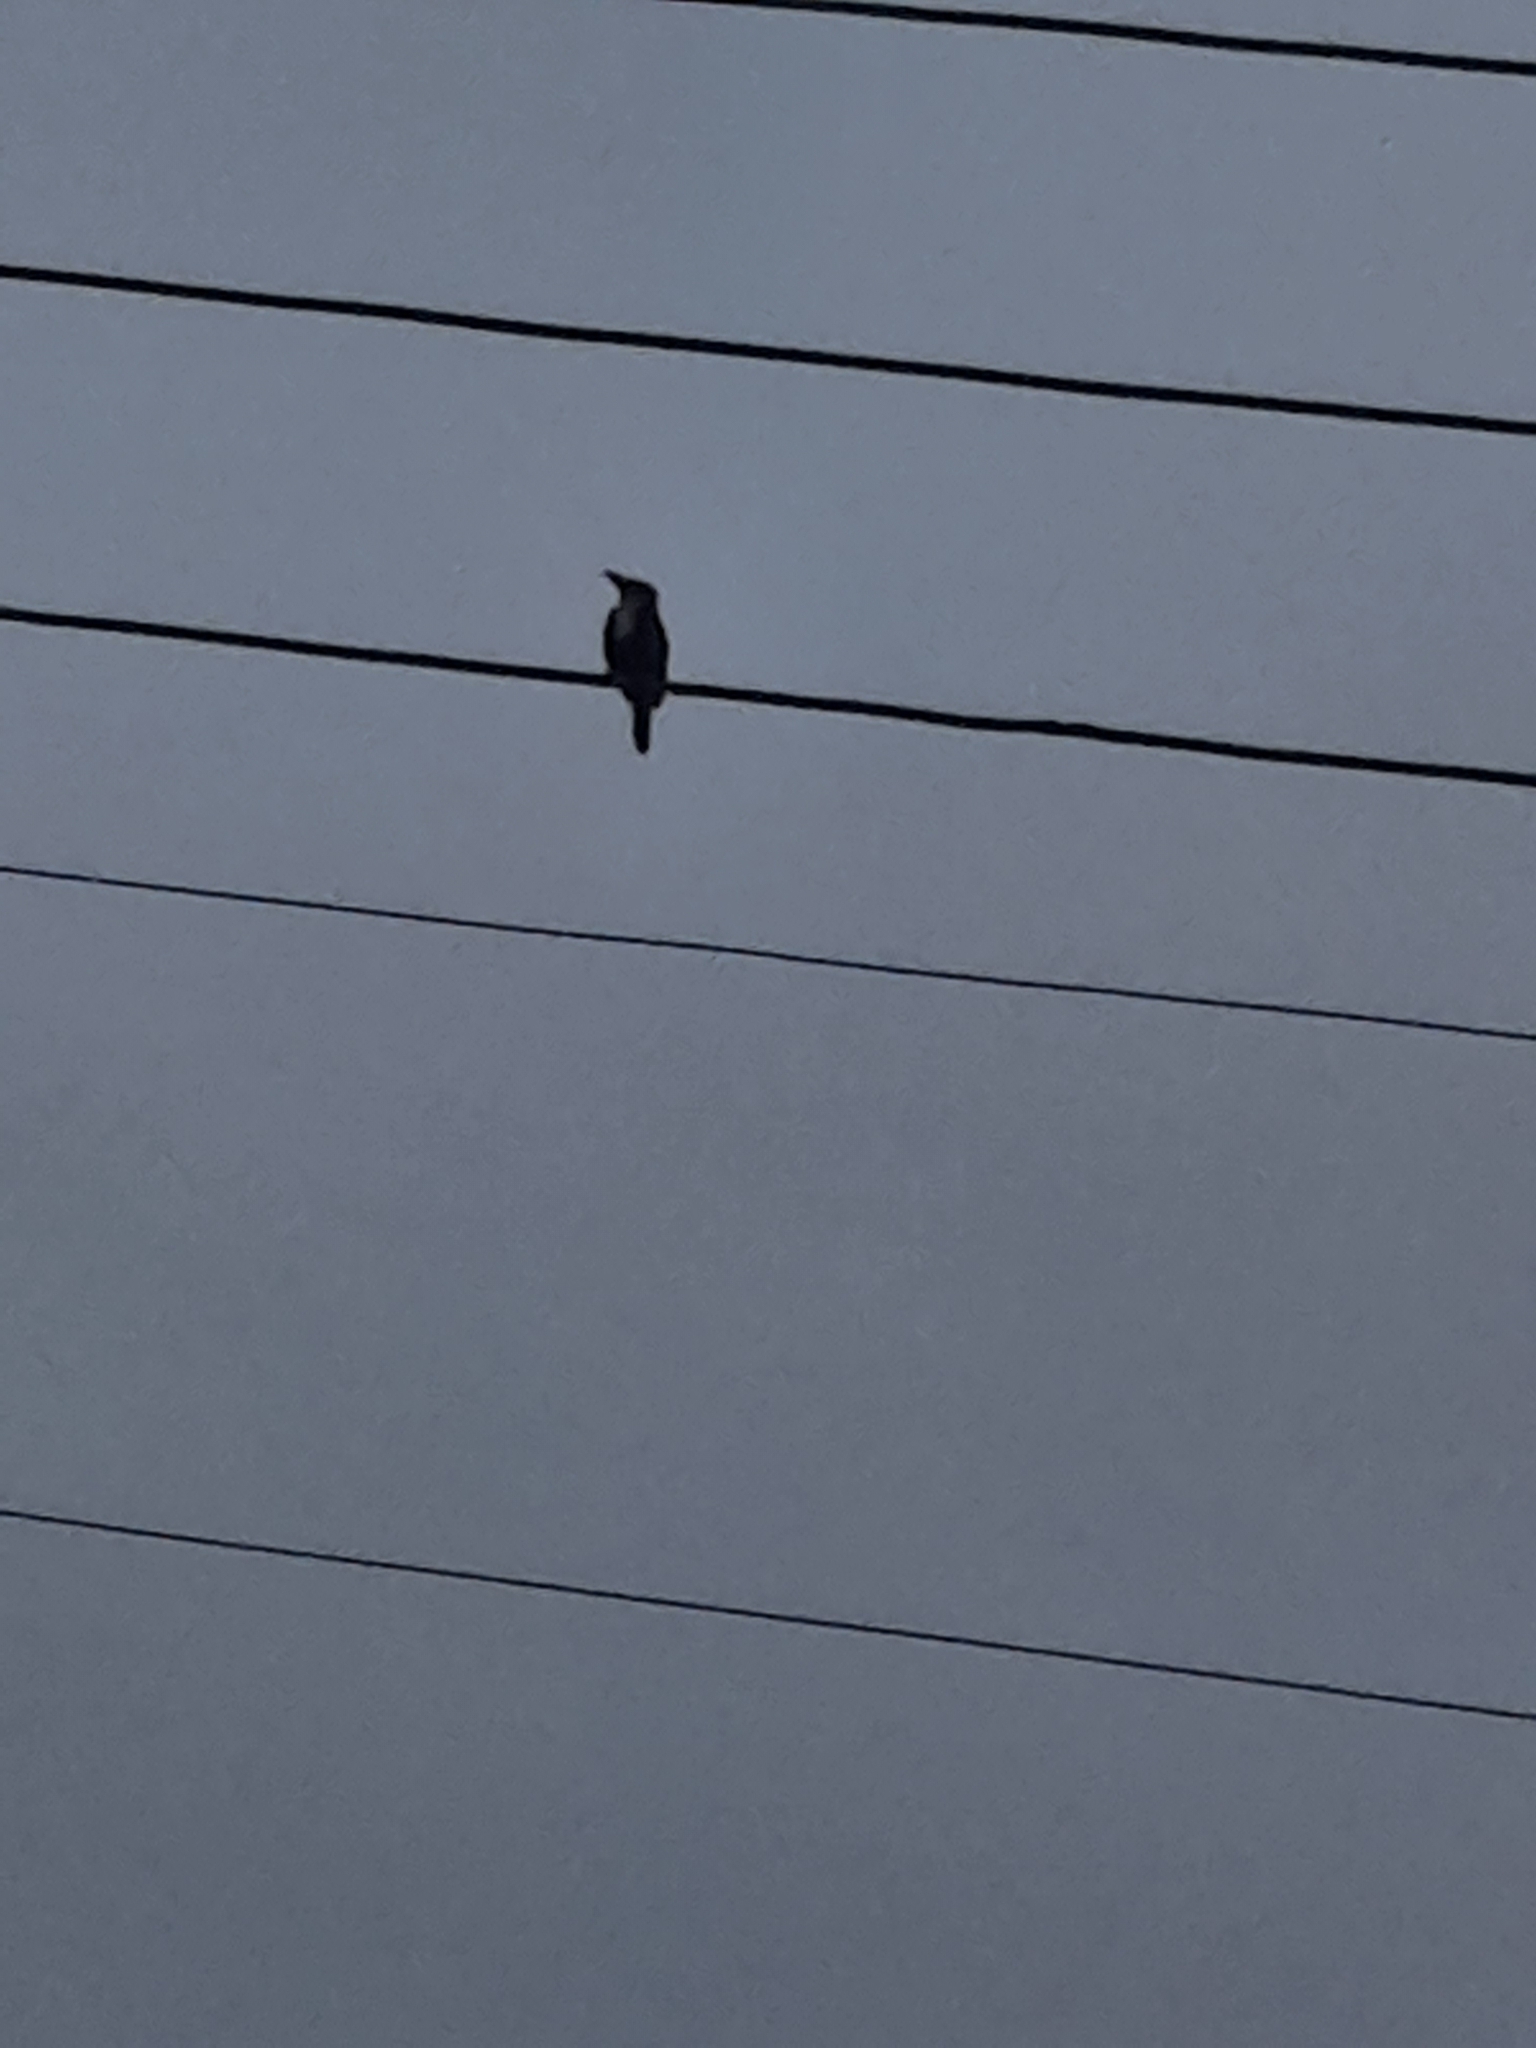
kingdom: Animalia
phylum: Chordata
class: Aves
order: Coraciiformes
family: Alcedinidae
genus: Halcyon
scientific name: Halcyon smyrnensis
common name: White-throated kingfisher
